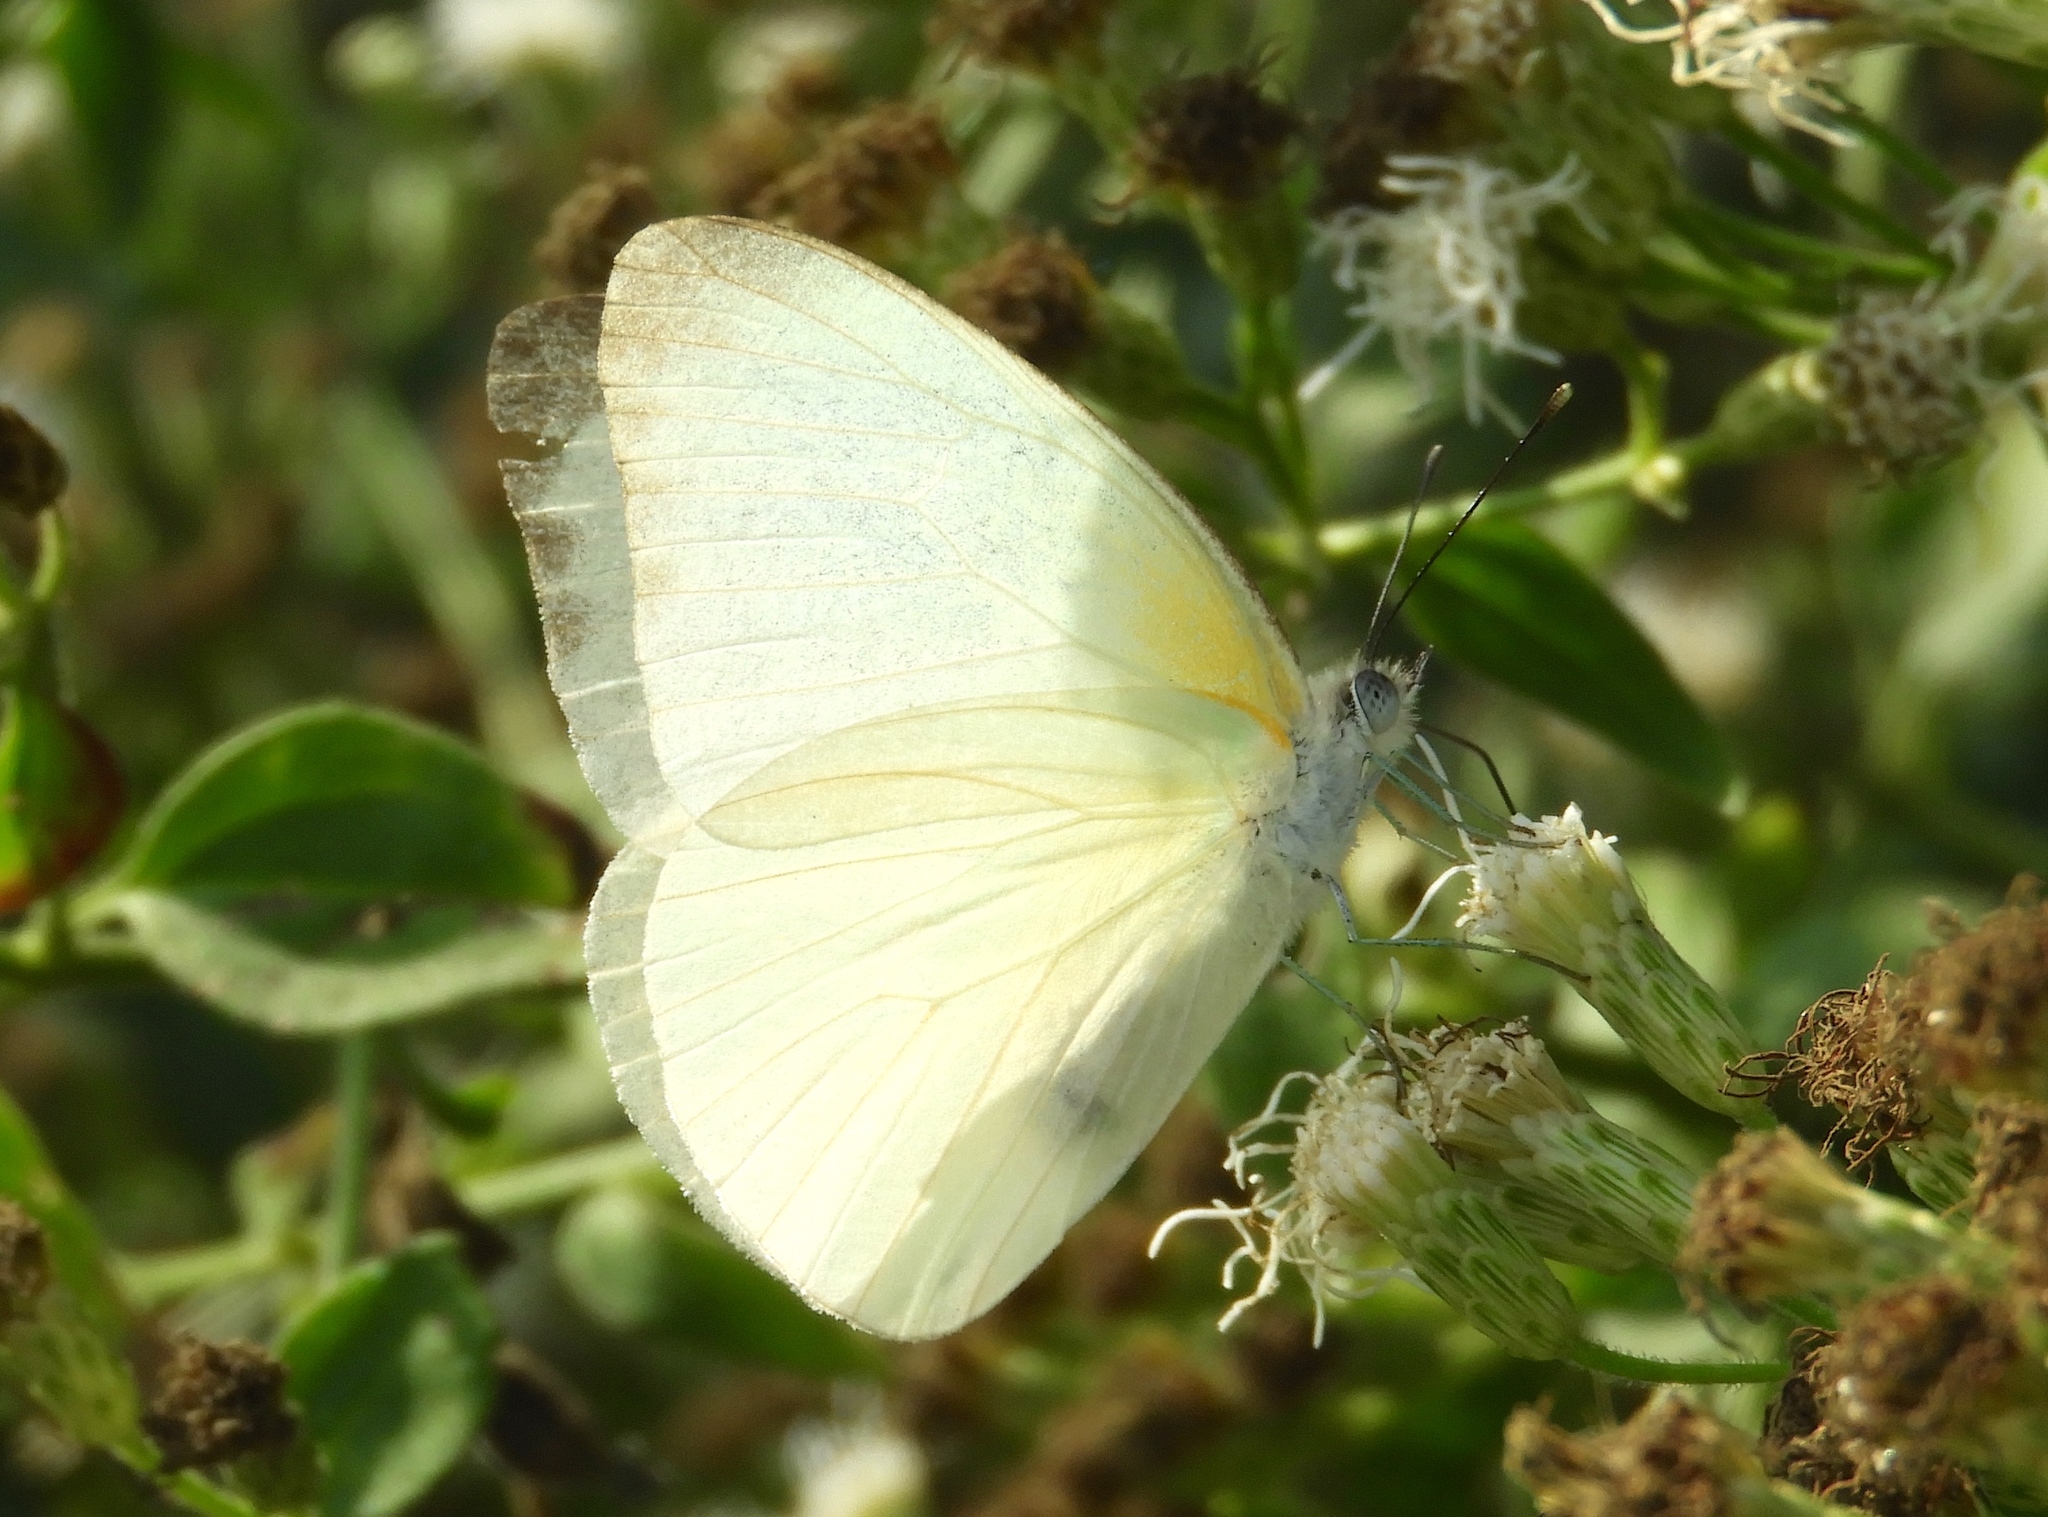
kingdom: Animalia
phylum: Arthropoda
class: Insecta
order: Lepidoptera
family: Pieridae
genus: Glutophrissa
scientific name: Glutophrissa drusilla
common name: Florida white
